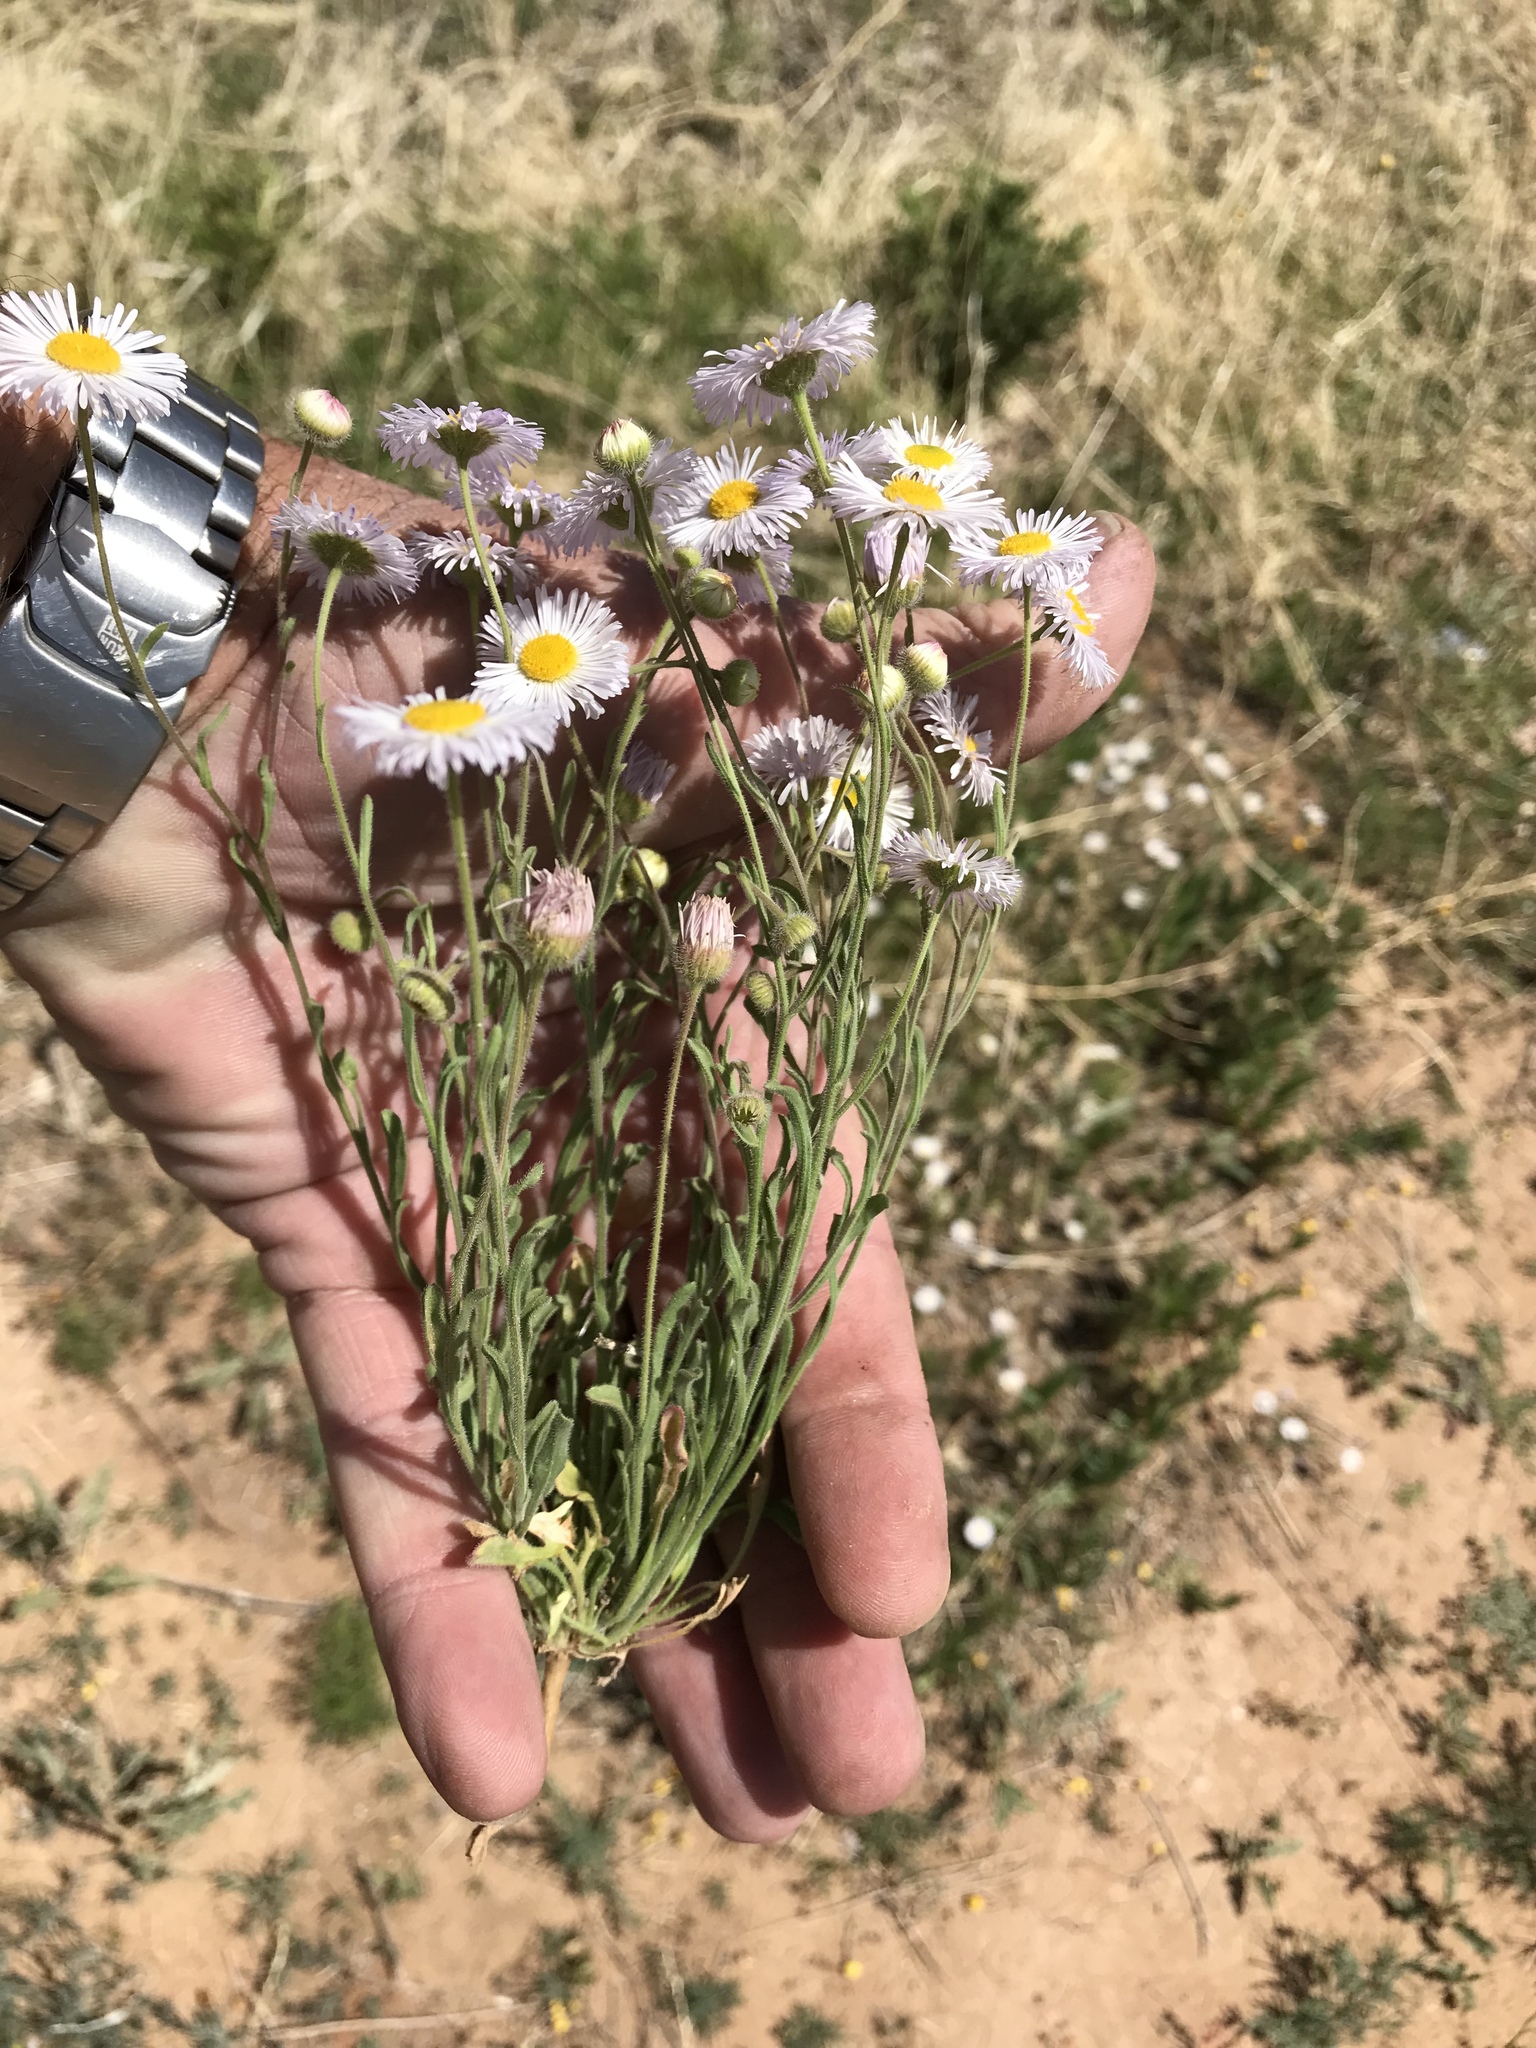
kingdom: Plantae
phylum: Tracheophyta
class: Magnoliopsida
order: Asterales
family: Asteraceae
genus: Erigeron
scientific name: Erigeron divergens
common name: Diffuse fleabane
